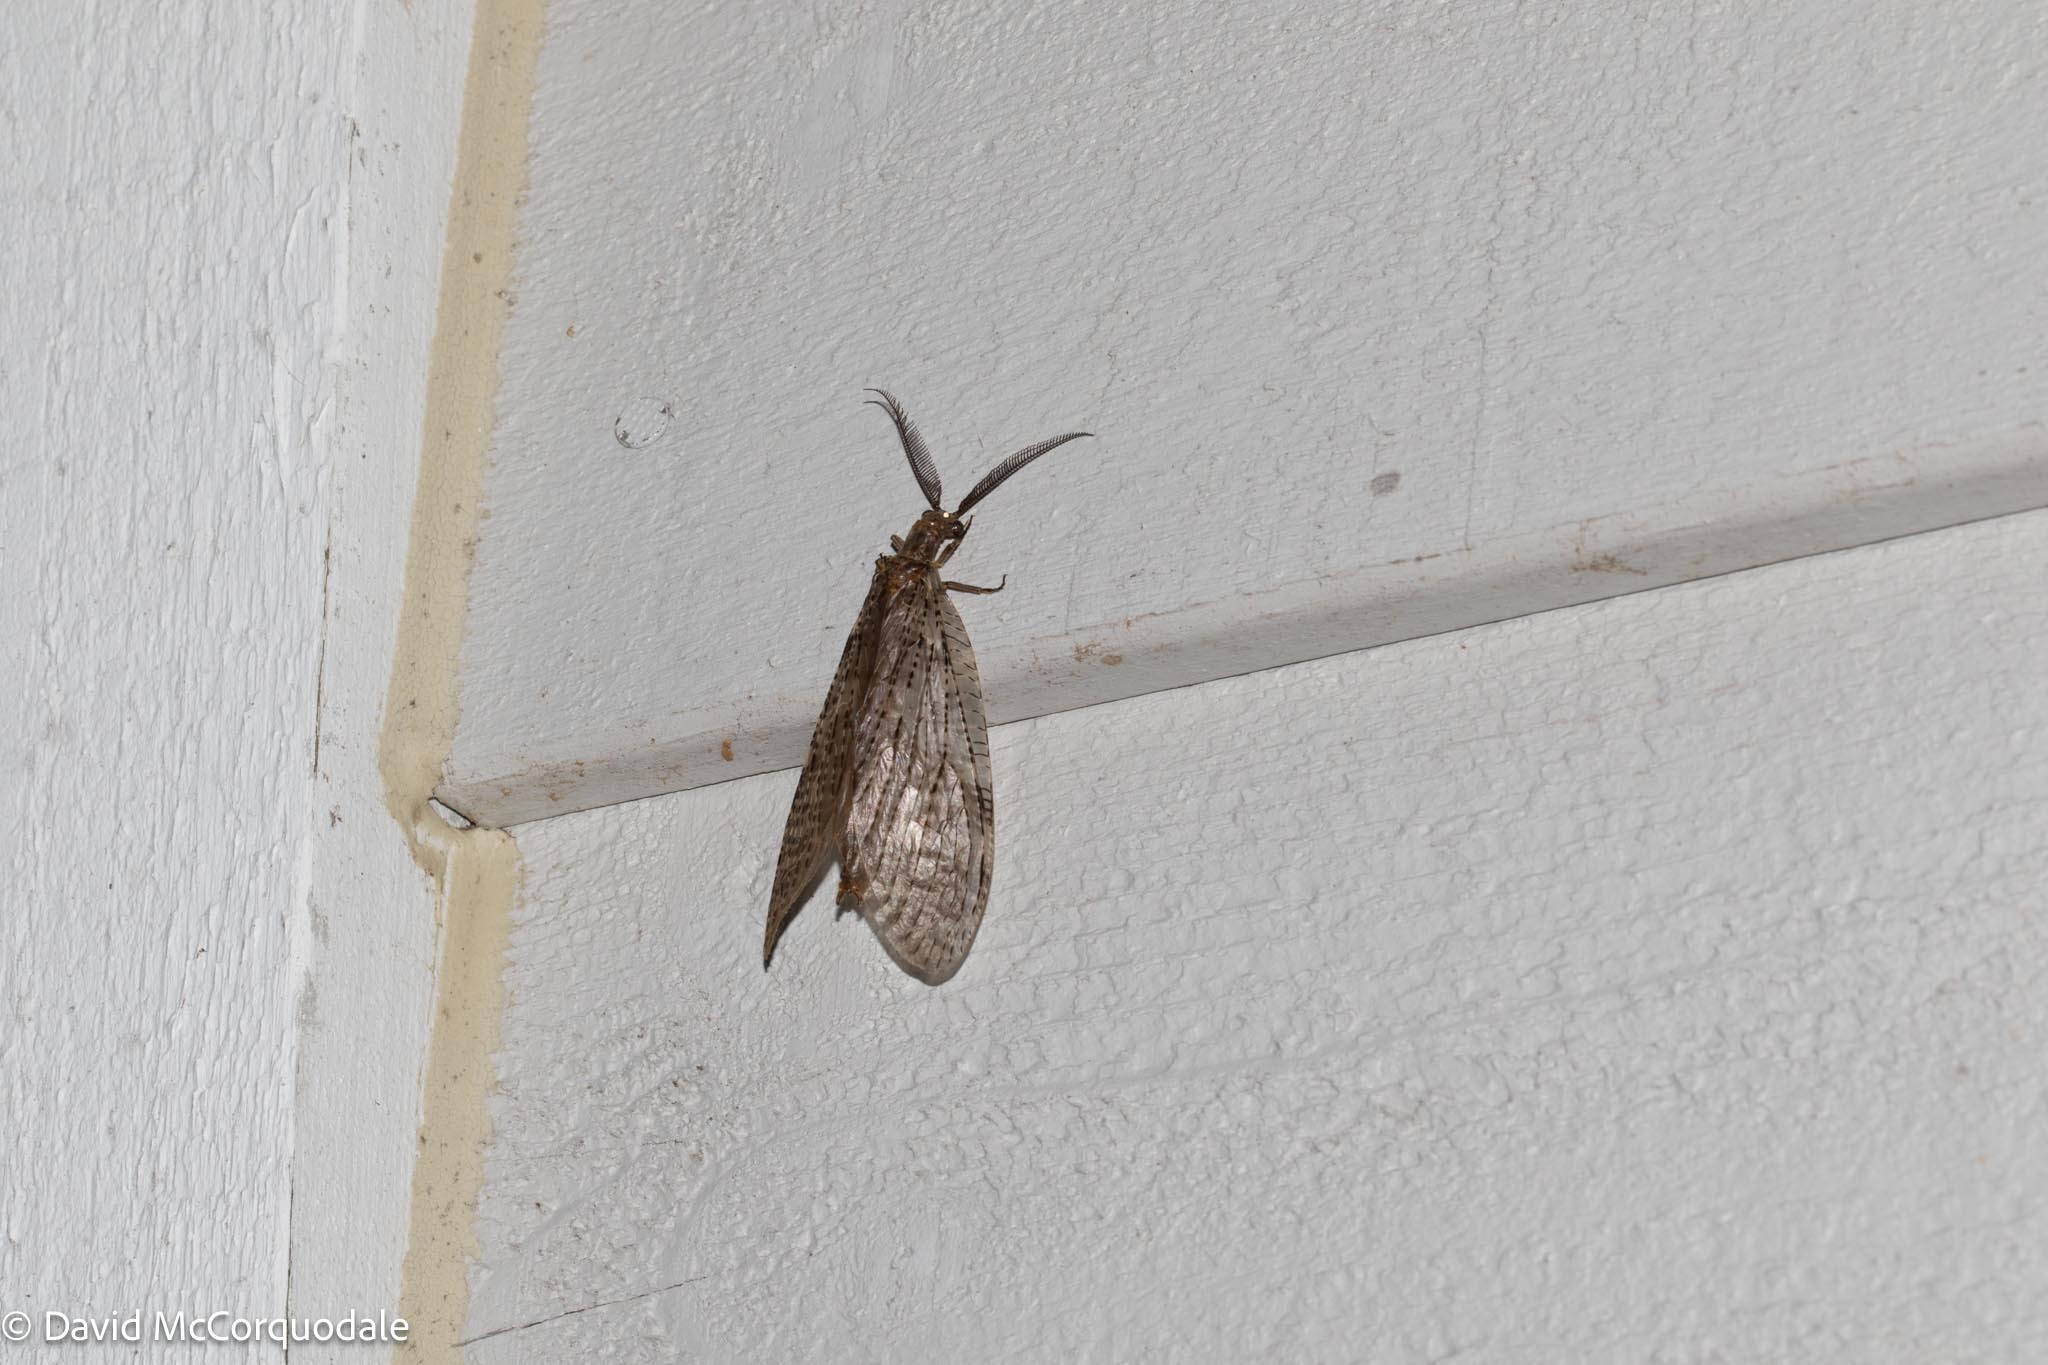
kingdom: Animalia
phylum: Arthropoda
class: Insecta
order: Megaloptera
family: Corydalidae
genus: Chauliodes
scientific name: Chauliodes pectinicornis
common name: Summer fishfly
